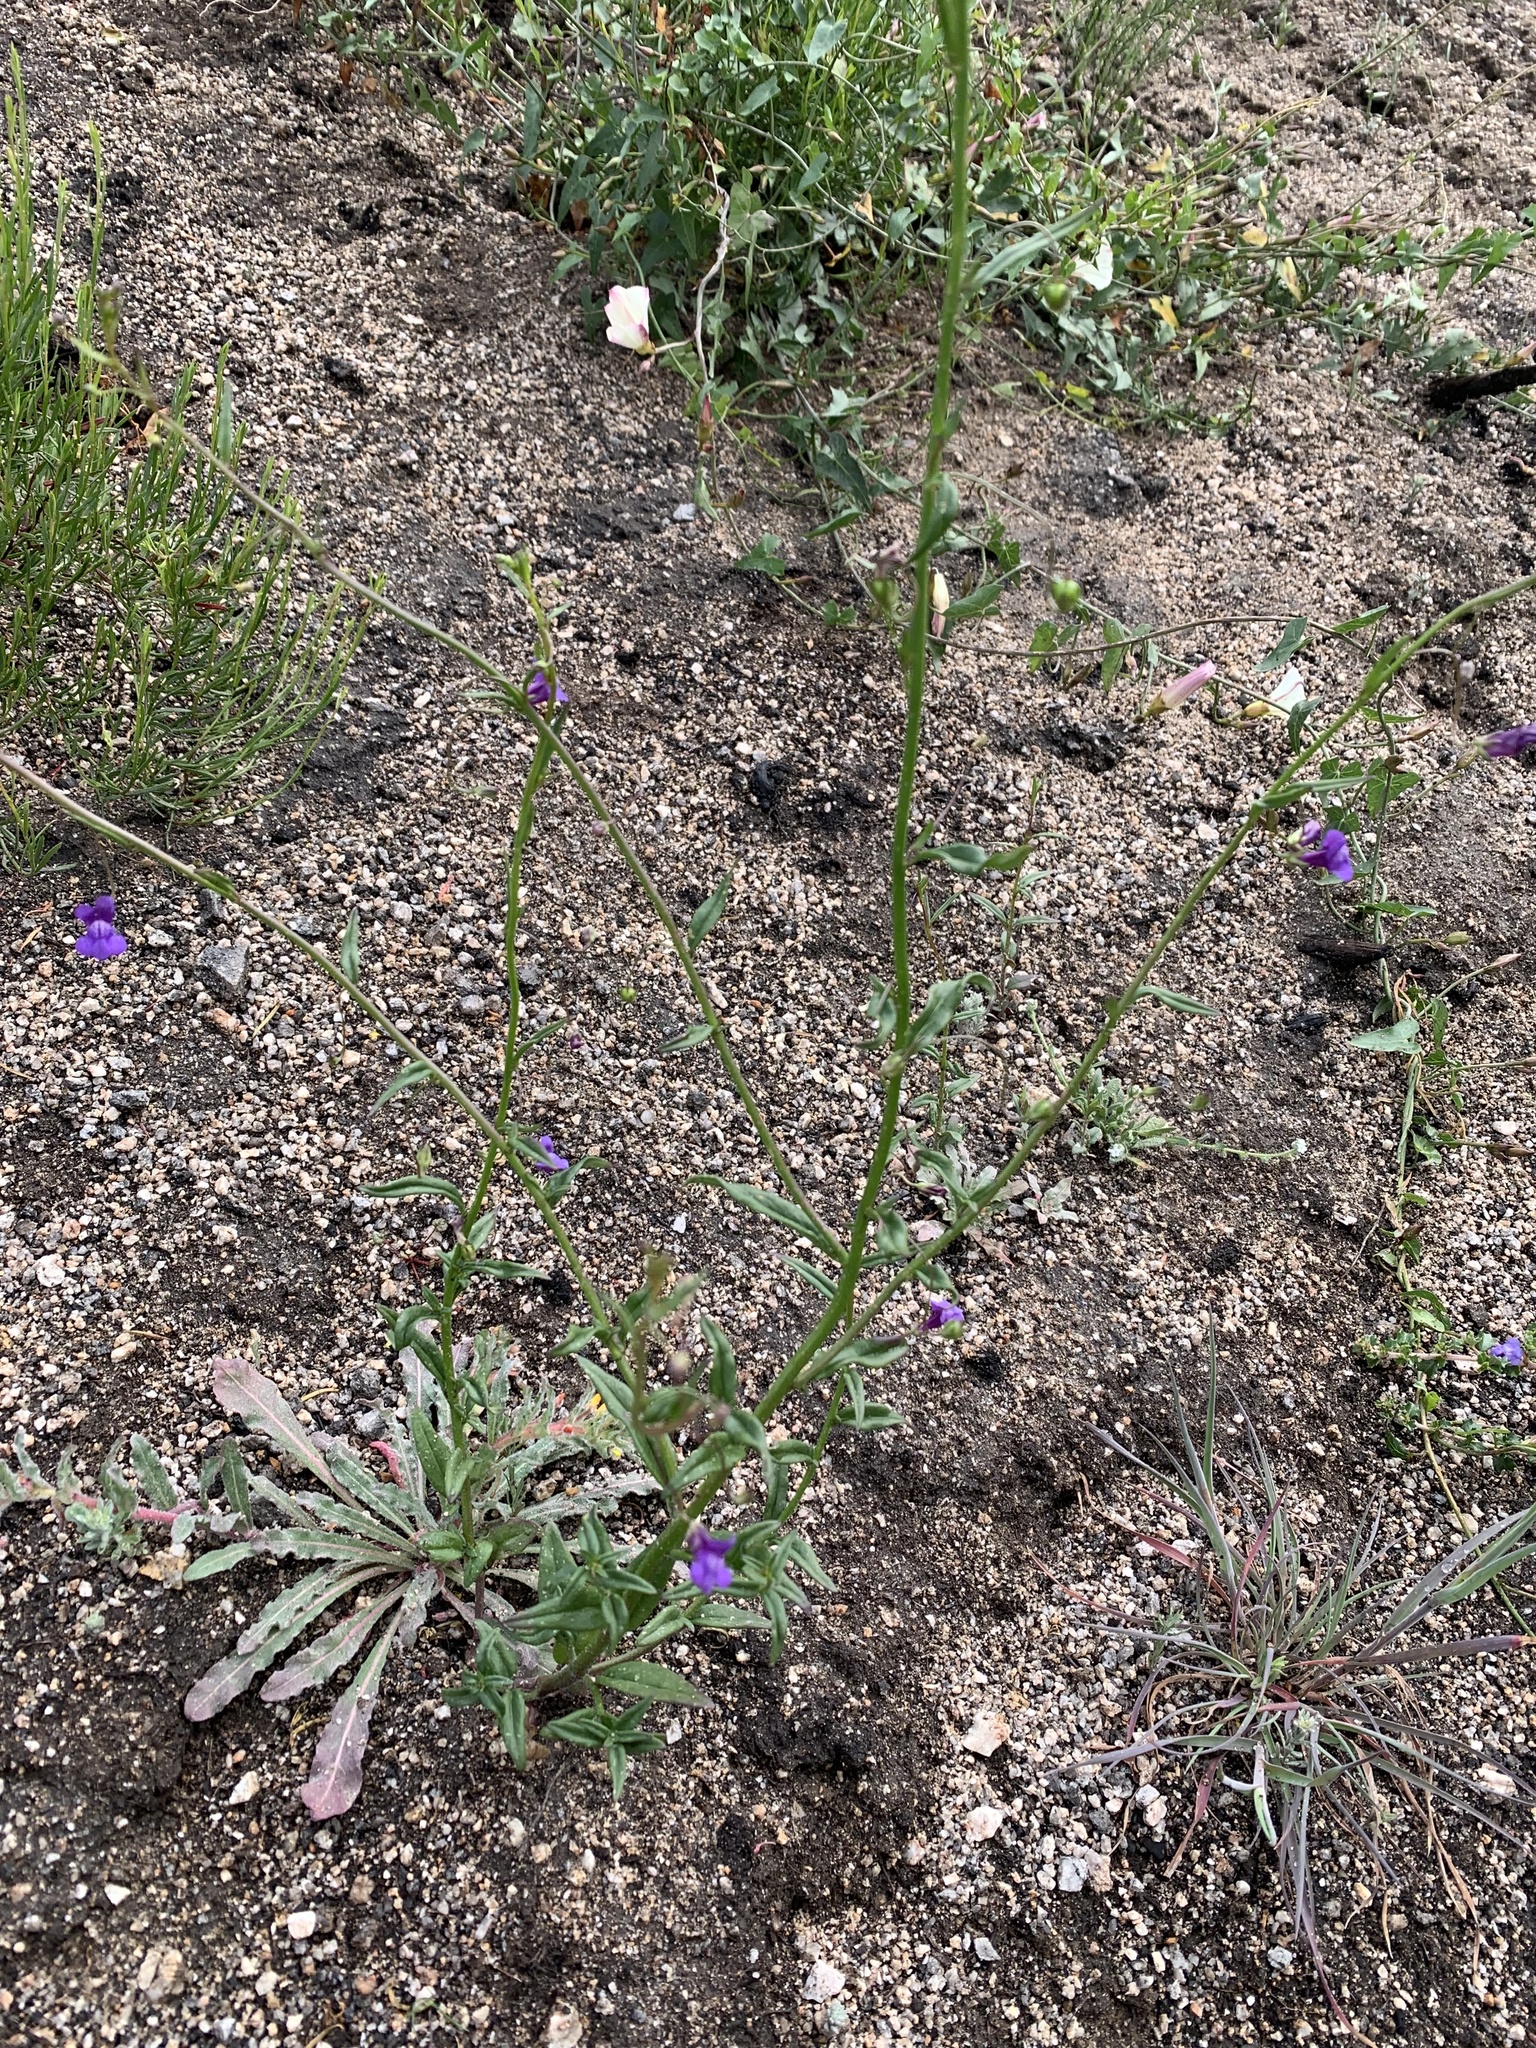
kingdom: Plantae
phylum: Tracheophyta
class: Magnoliopsida
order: Lamiales
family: Plantaginaceae
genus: Neogaerrhinum
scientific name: Neogaerrhinum strictum
